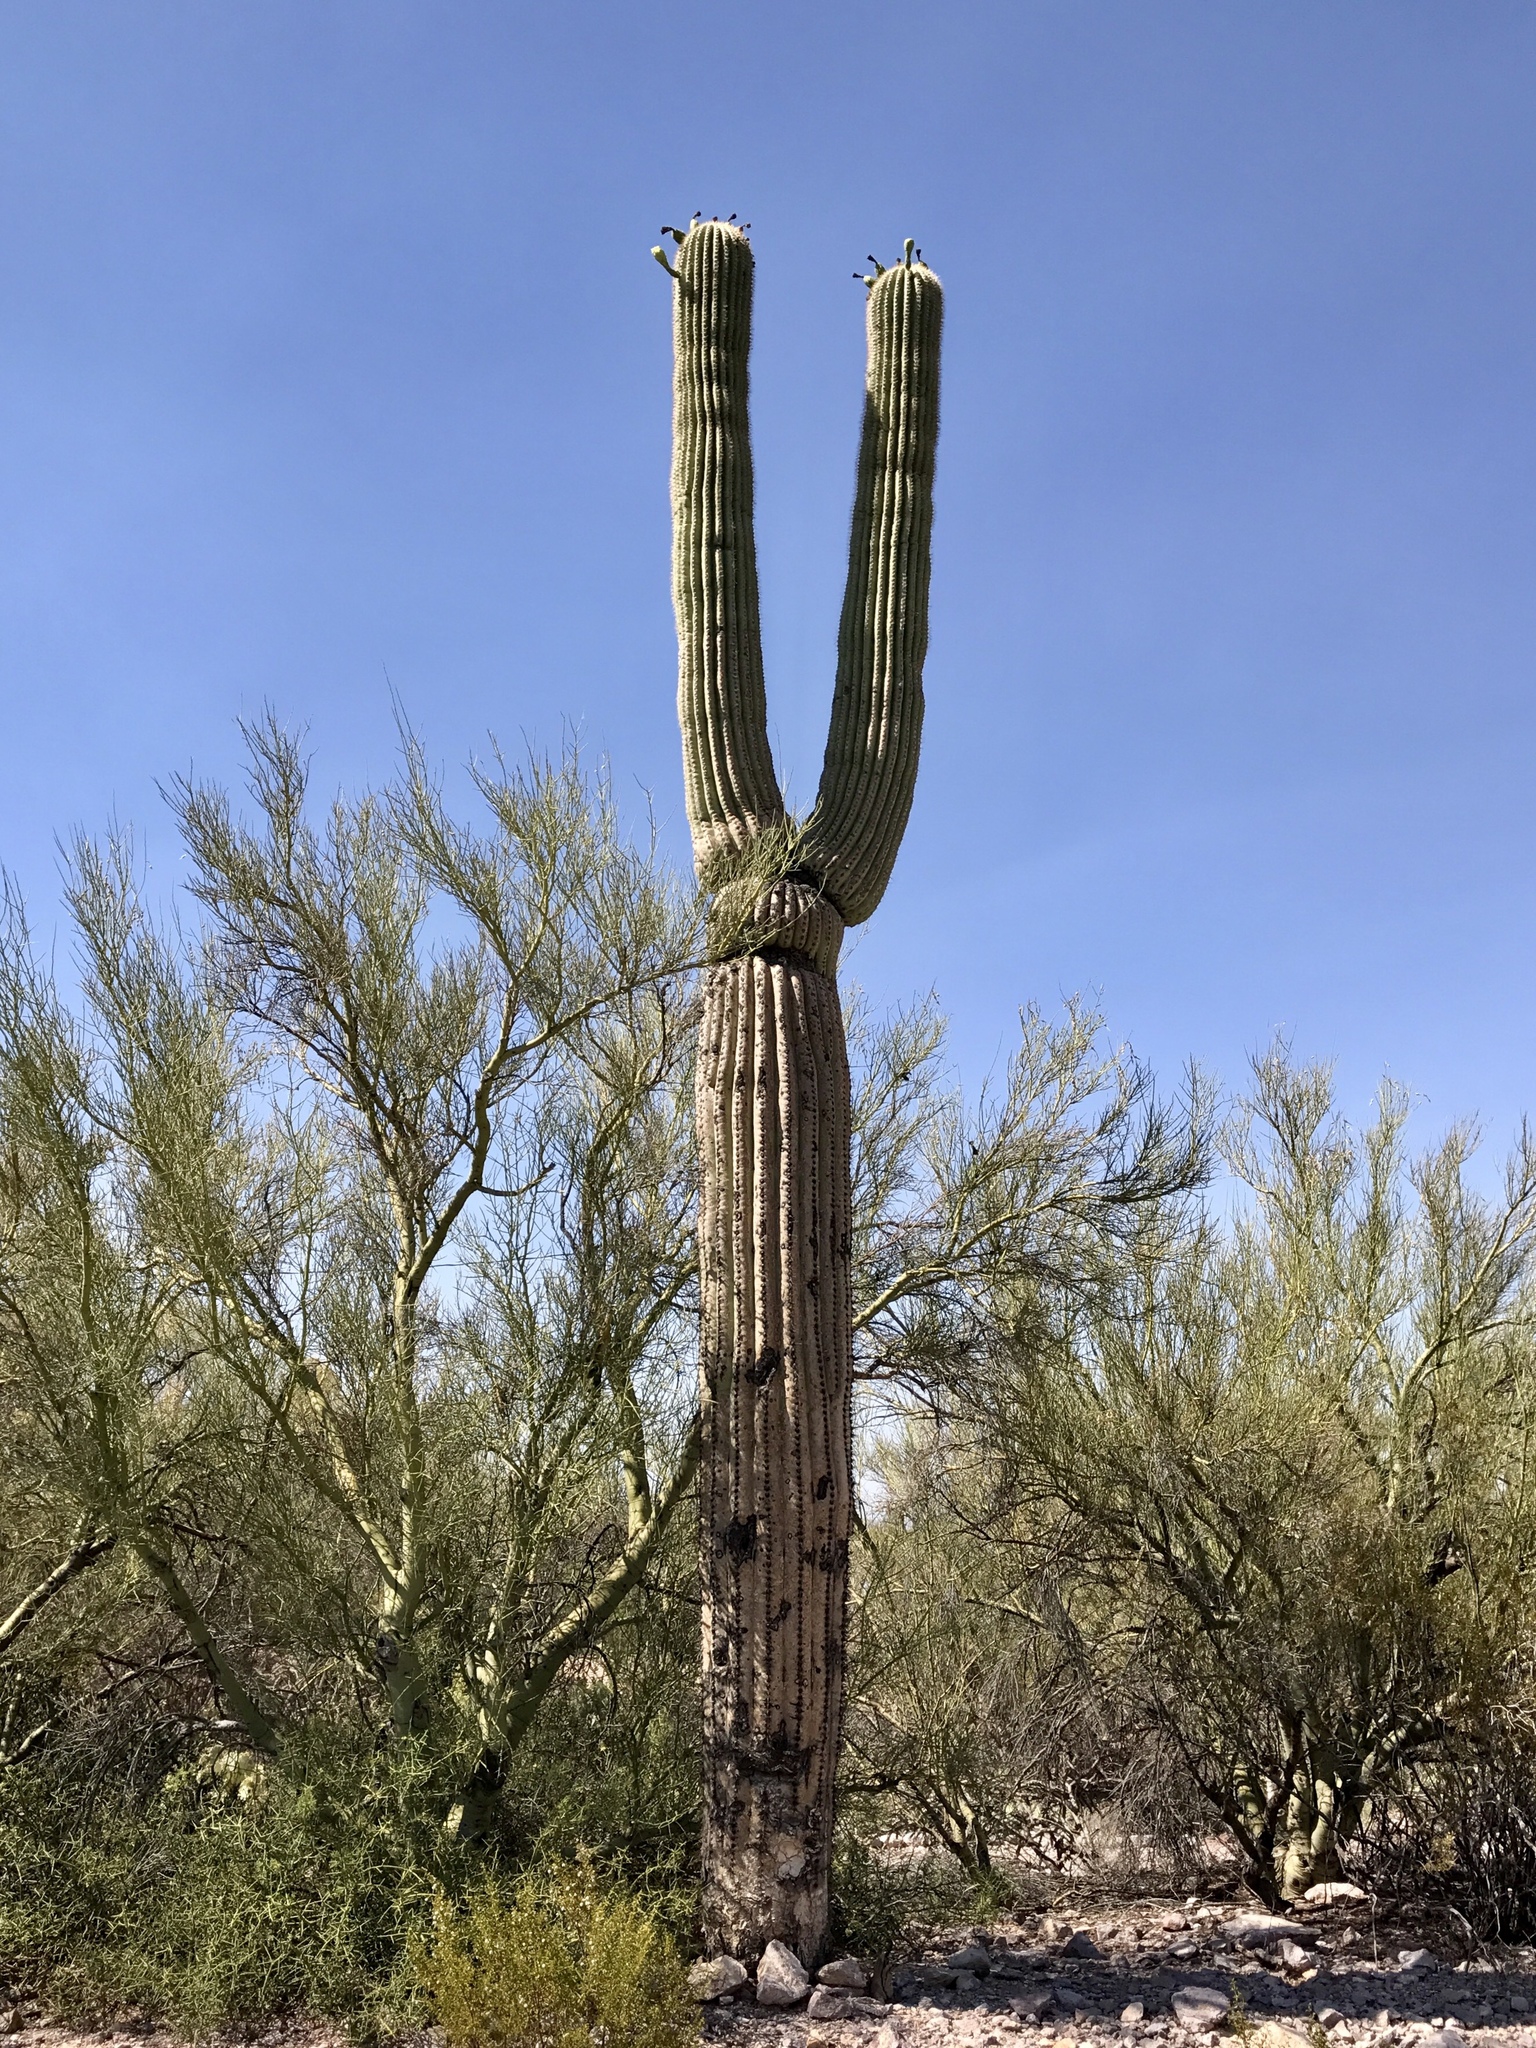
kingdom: Plantae
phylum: Tracheophyta
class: Magnoliopsida
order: Caryophyllales
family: Cactaceae
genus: Carnegiea
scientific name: Carnegiea gigantea
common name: Saguaro
